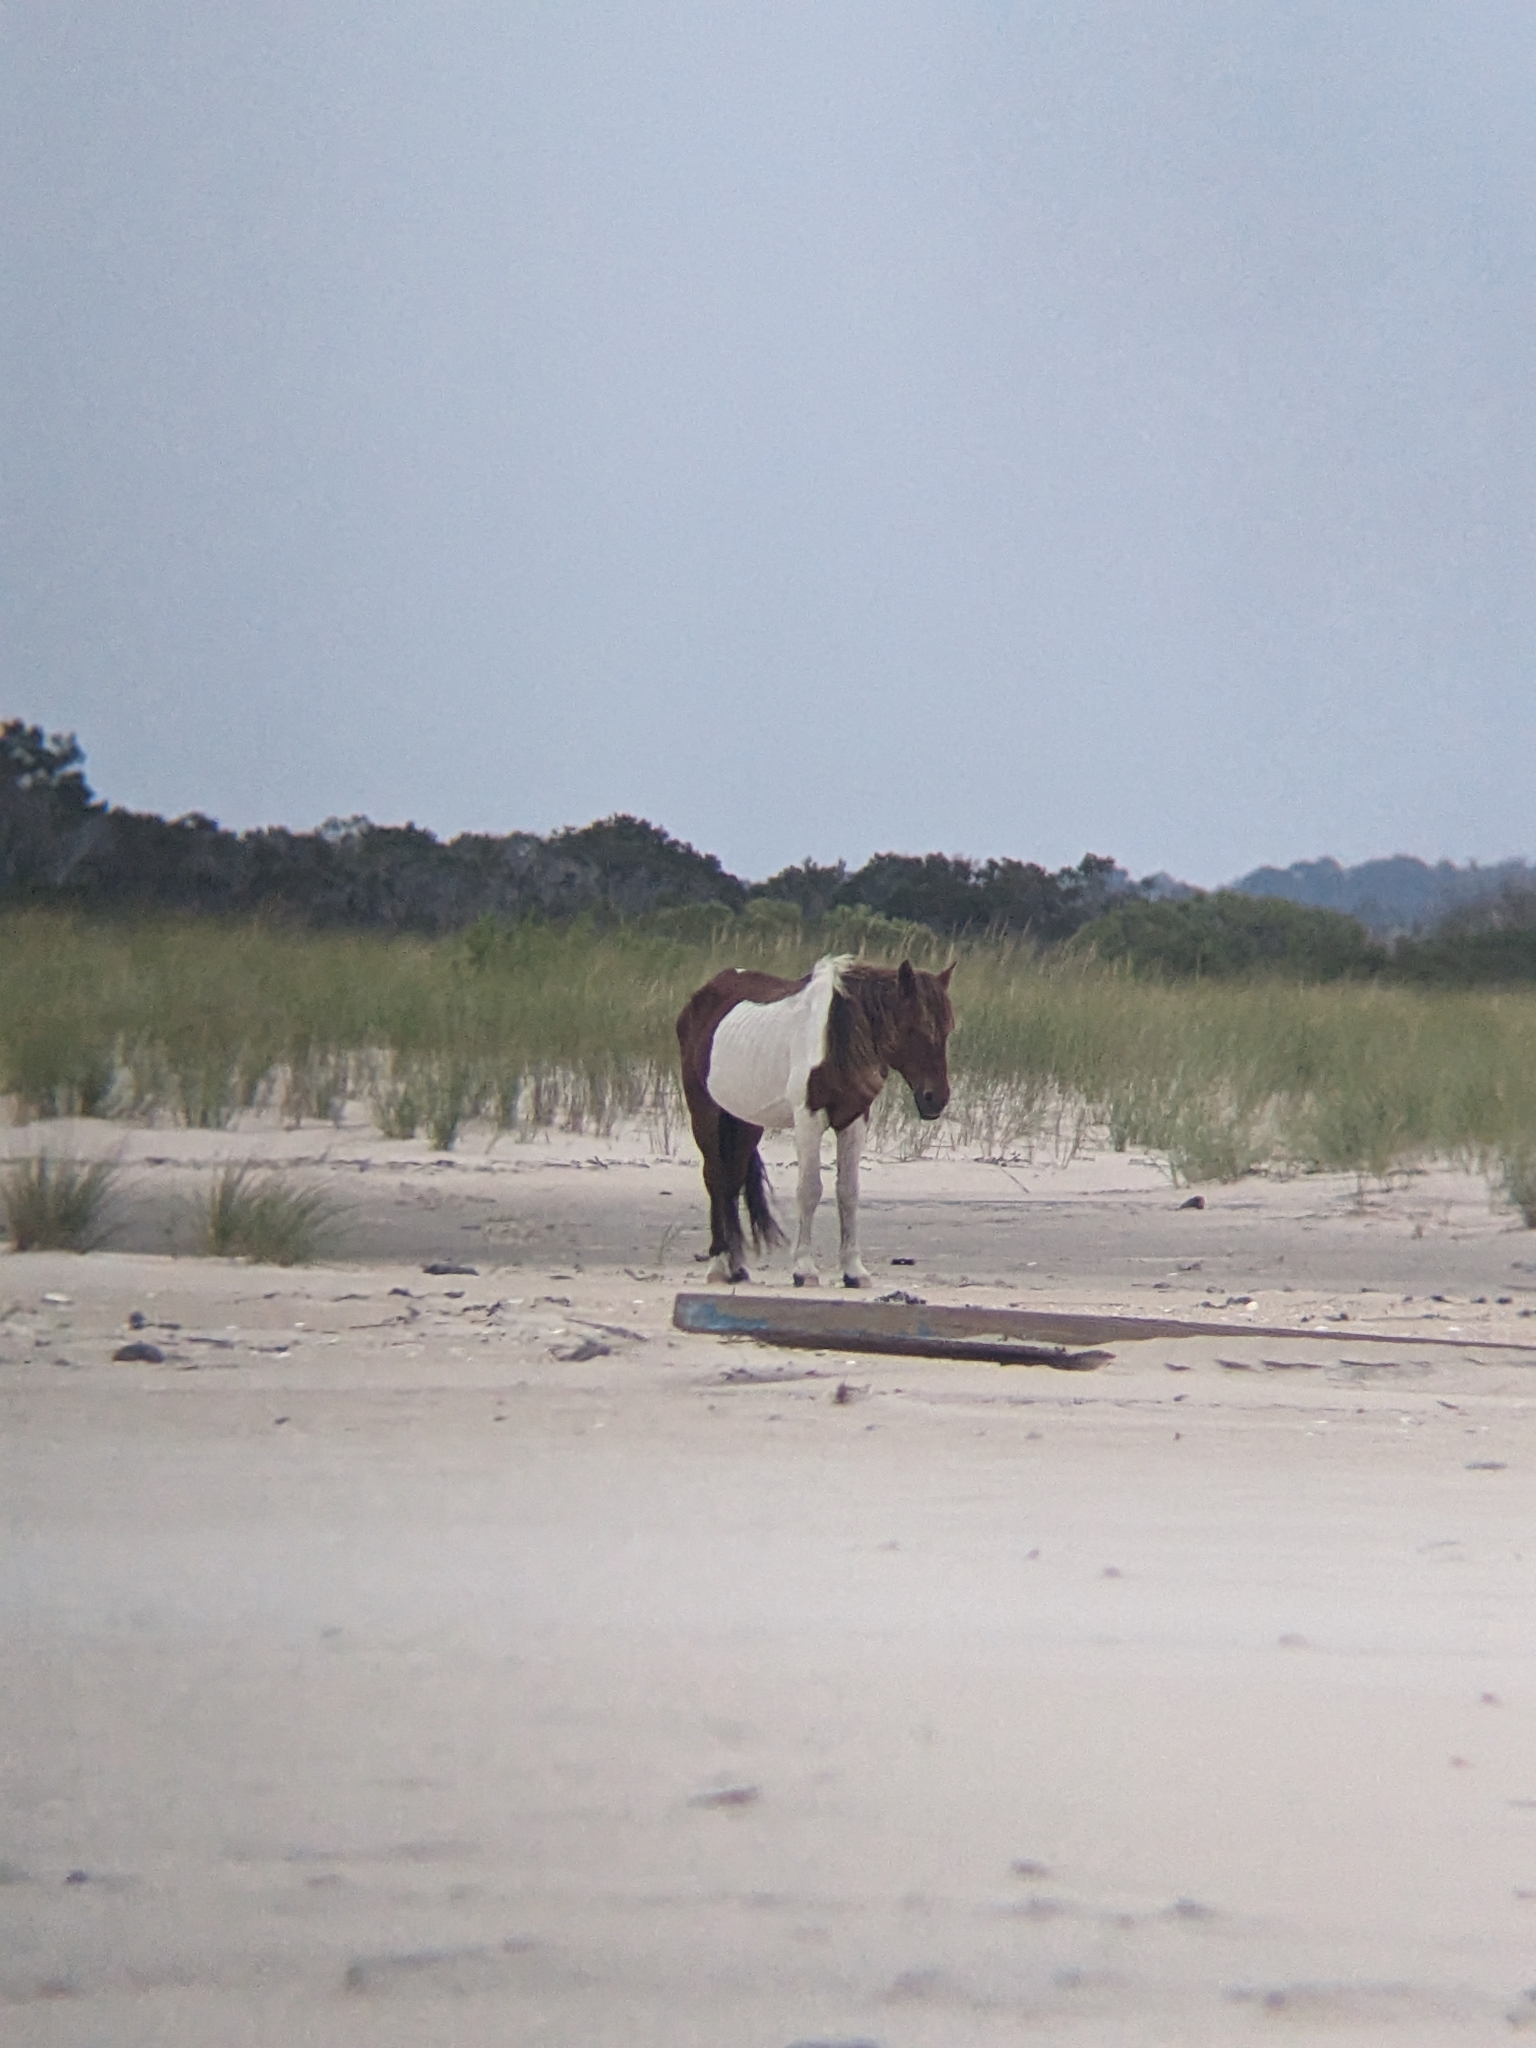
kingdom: Animalia
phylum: Chordata
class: Mammalia
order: Perissodactyla
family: Equidae
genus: Equus
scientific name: Equus caballus
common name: Horse
